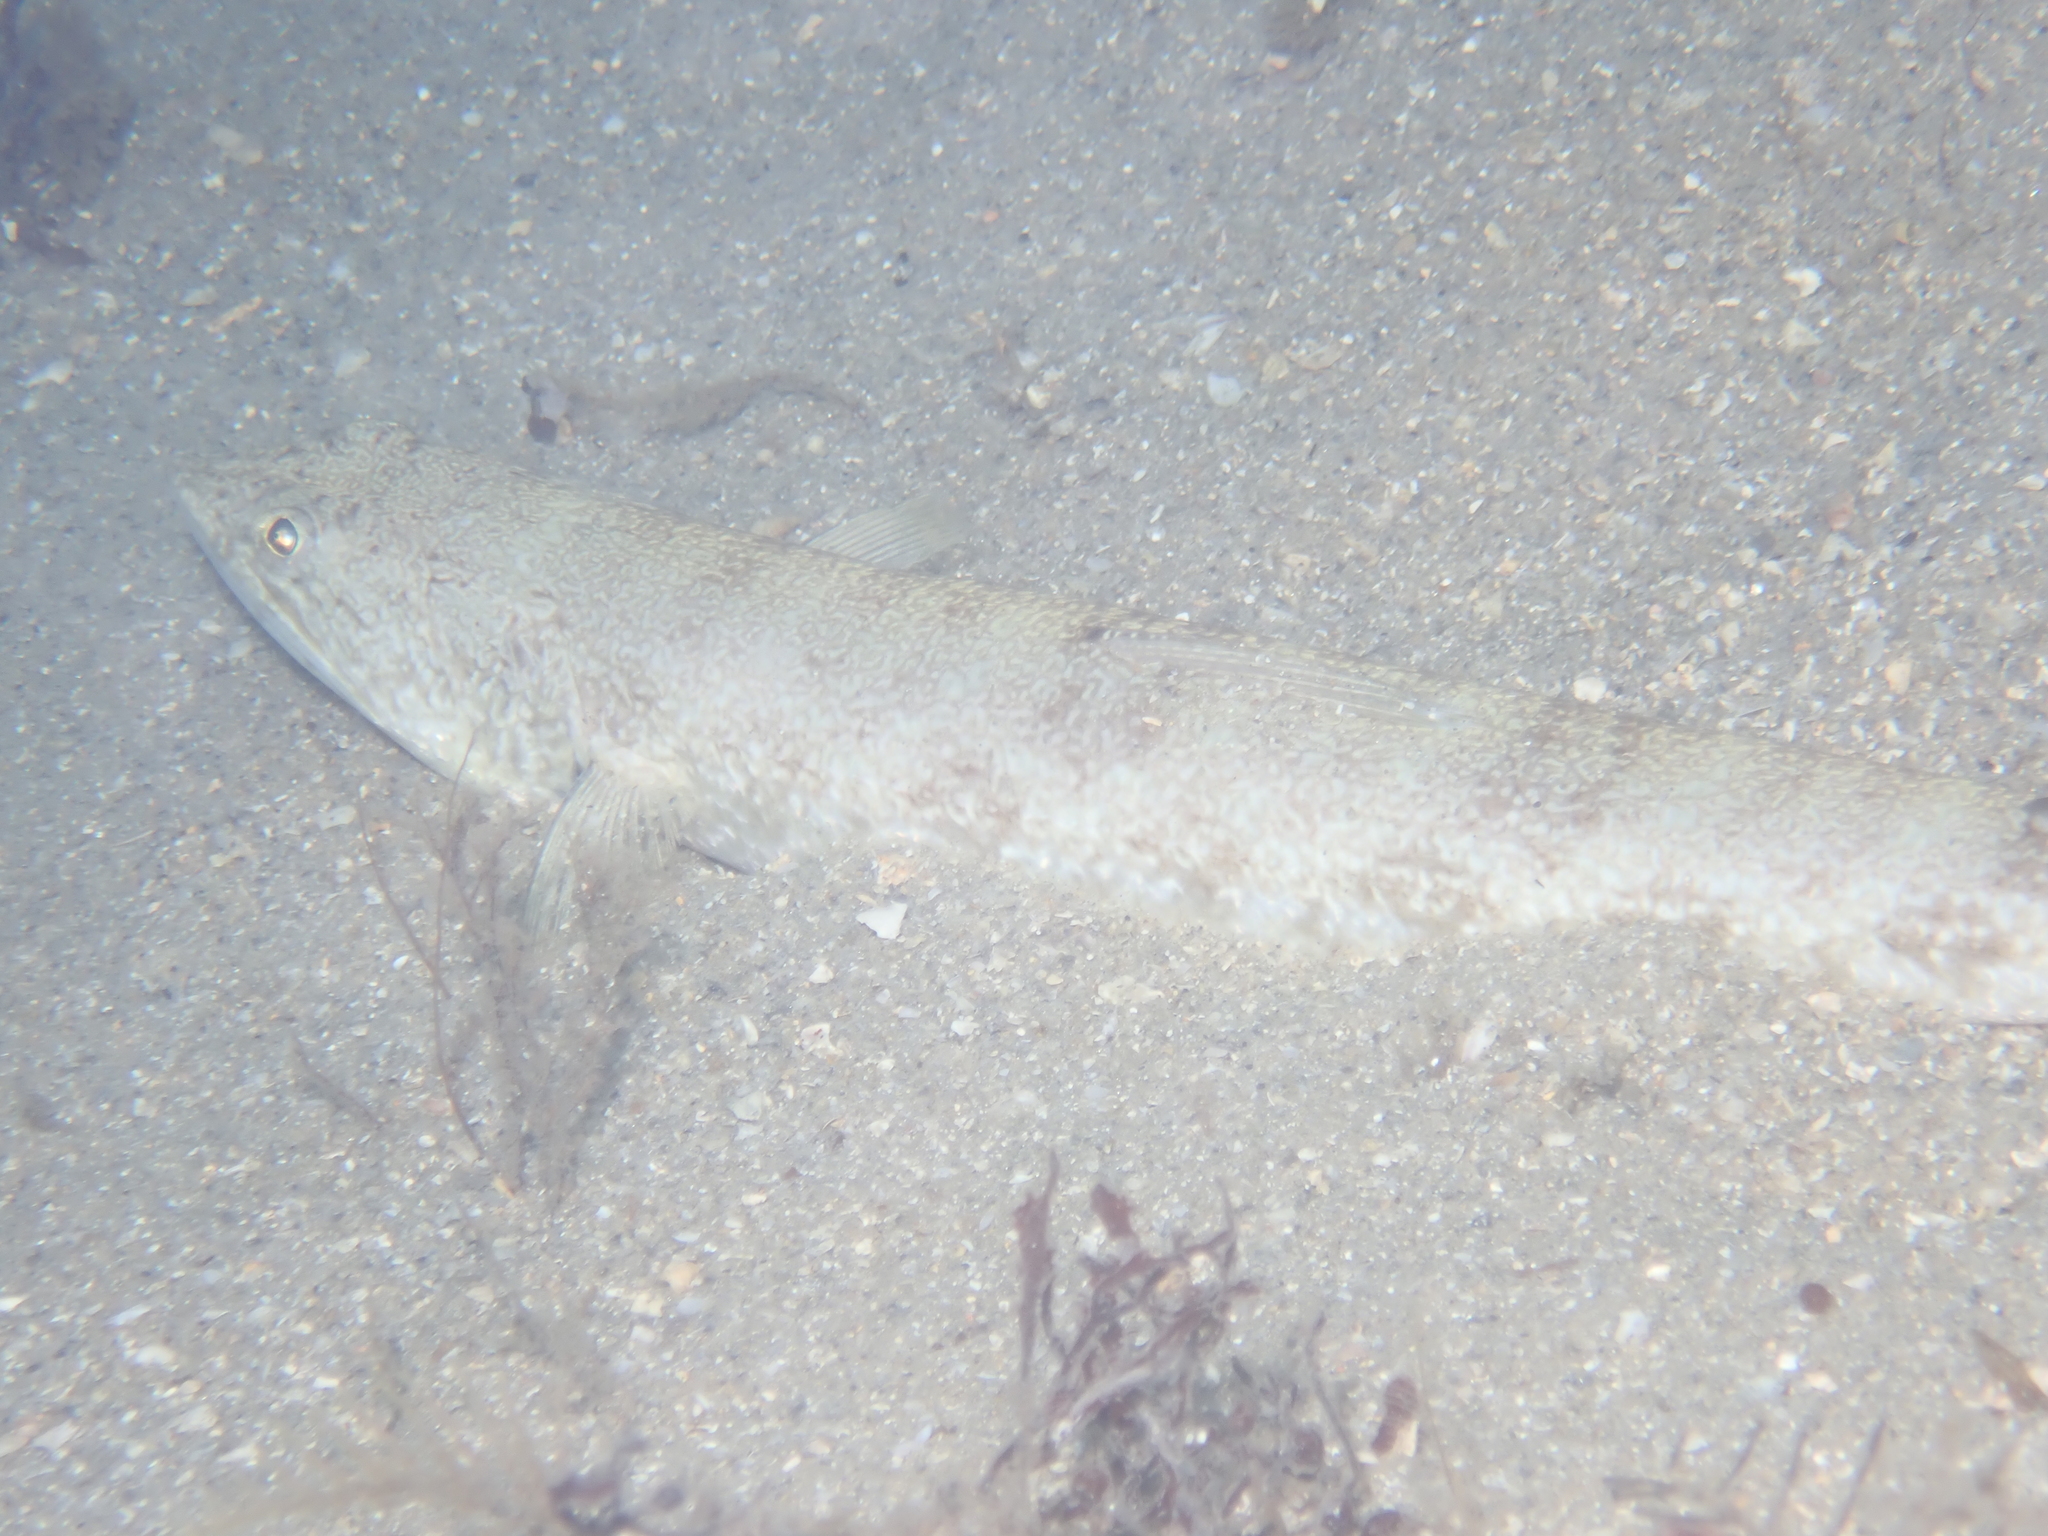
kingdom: Animalia
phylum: Chordata
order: Aulopiformes
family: Synodontidae
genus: Synodus
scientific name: Synodus foetens
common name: Inshore lizardfish
